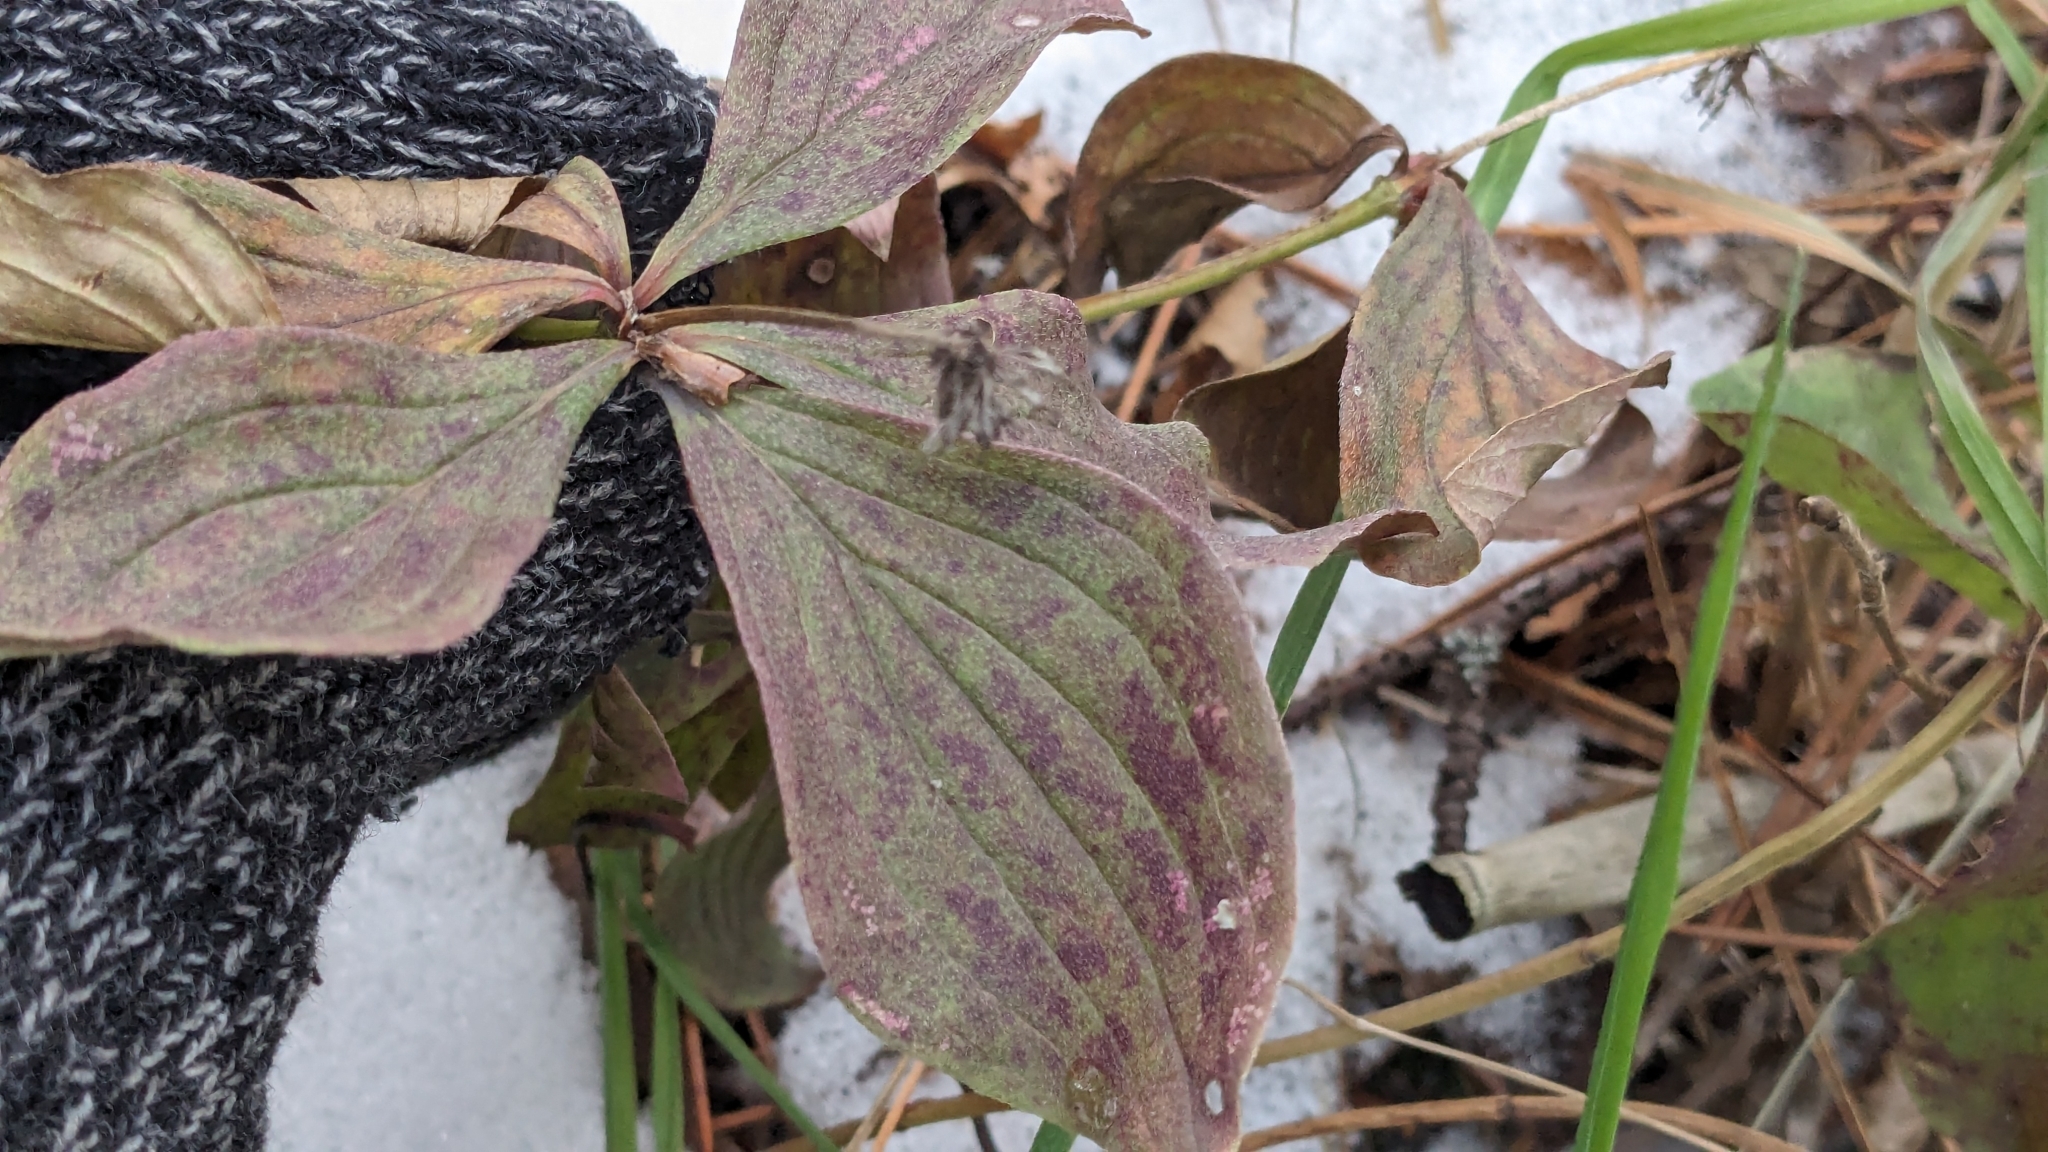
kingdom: Plantae
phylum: Tracheophyta
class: Magnoliopsida
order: Cornales
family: Cornaceae
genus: Cornus
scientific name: Cornus canadensis
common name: Creeping dogwood
